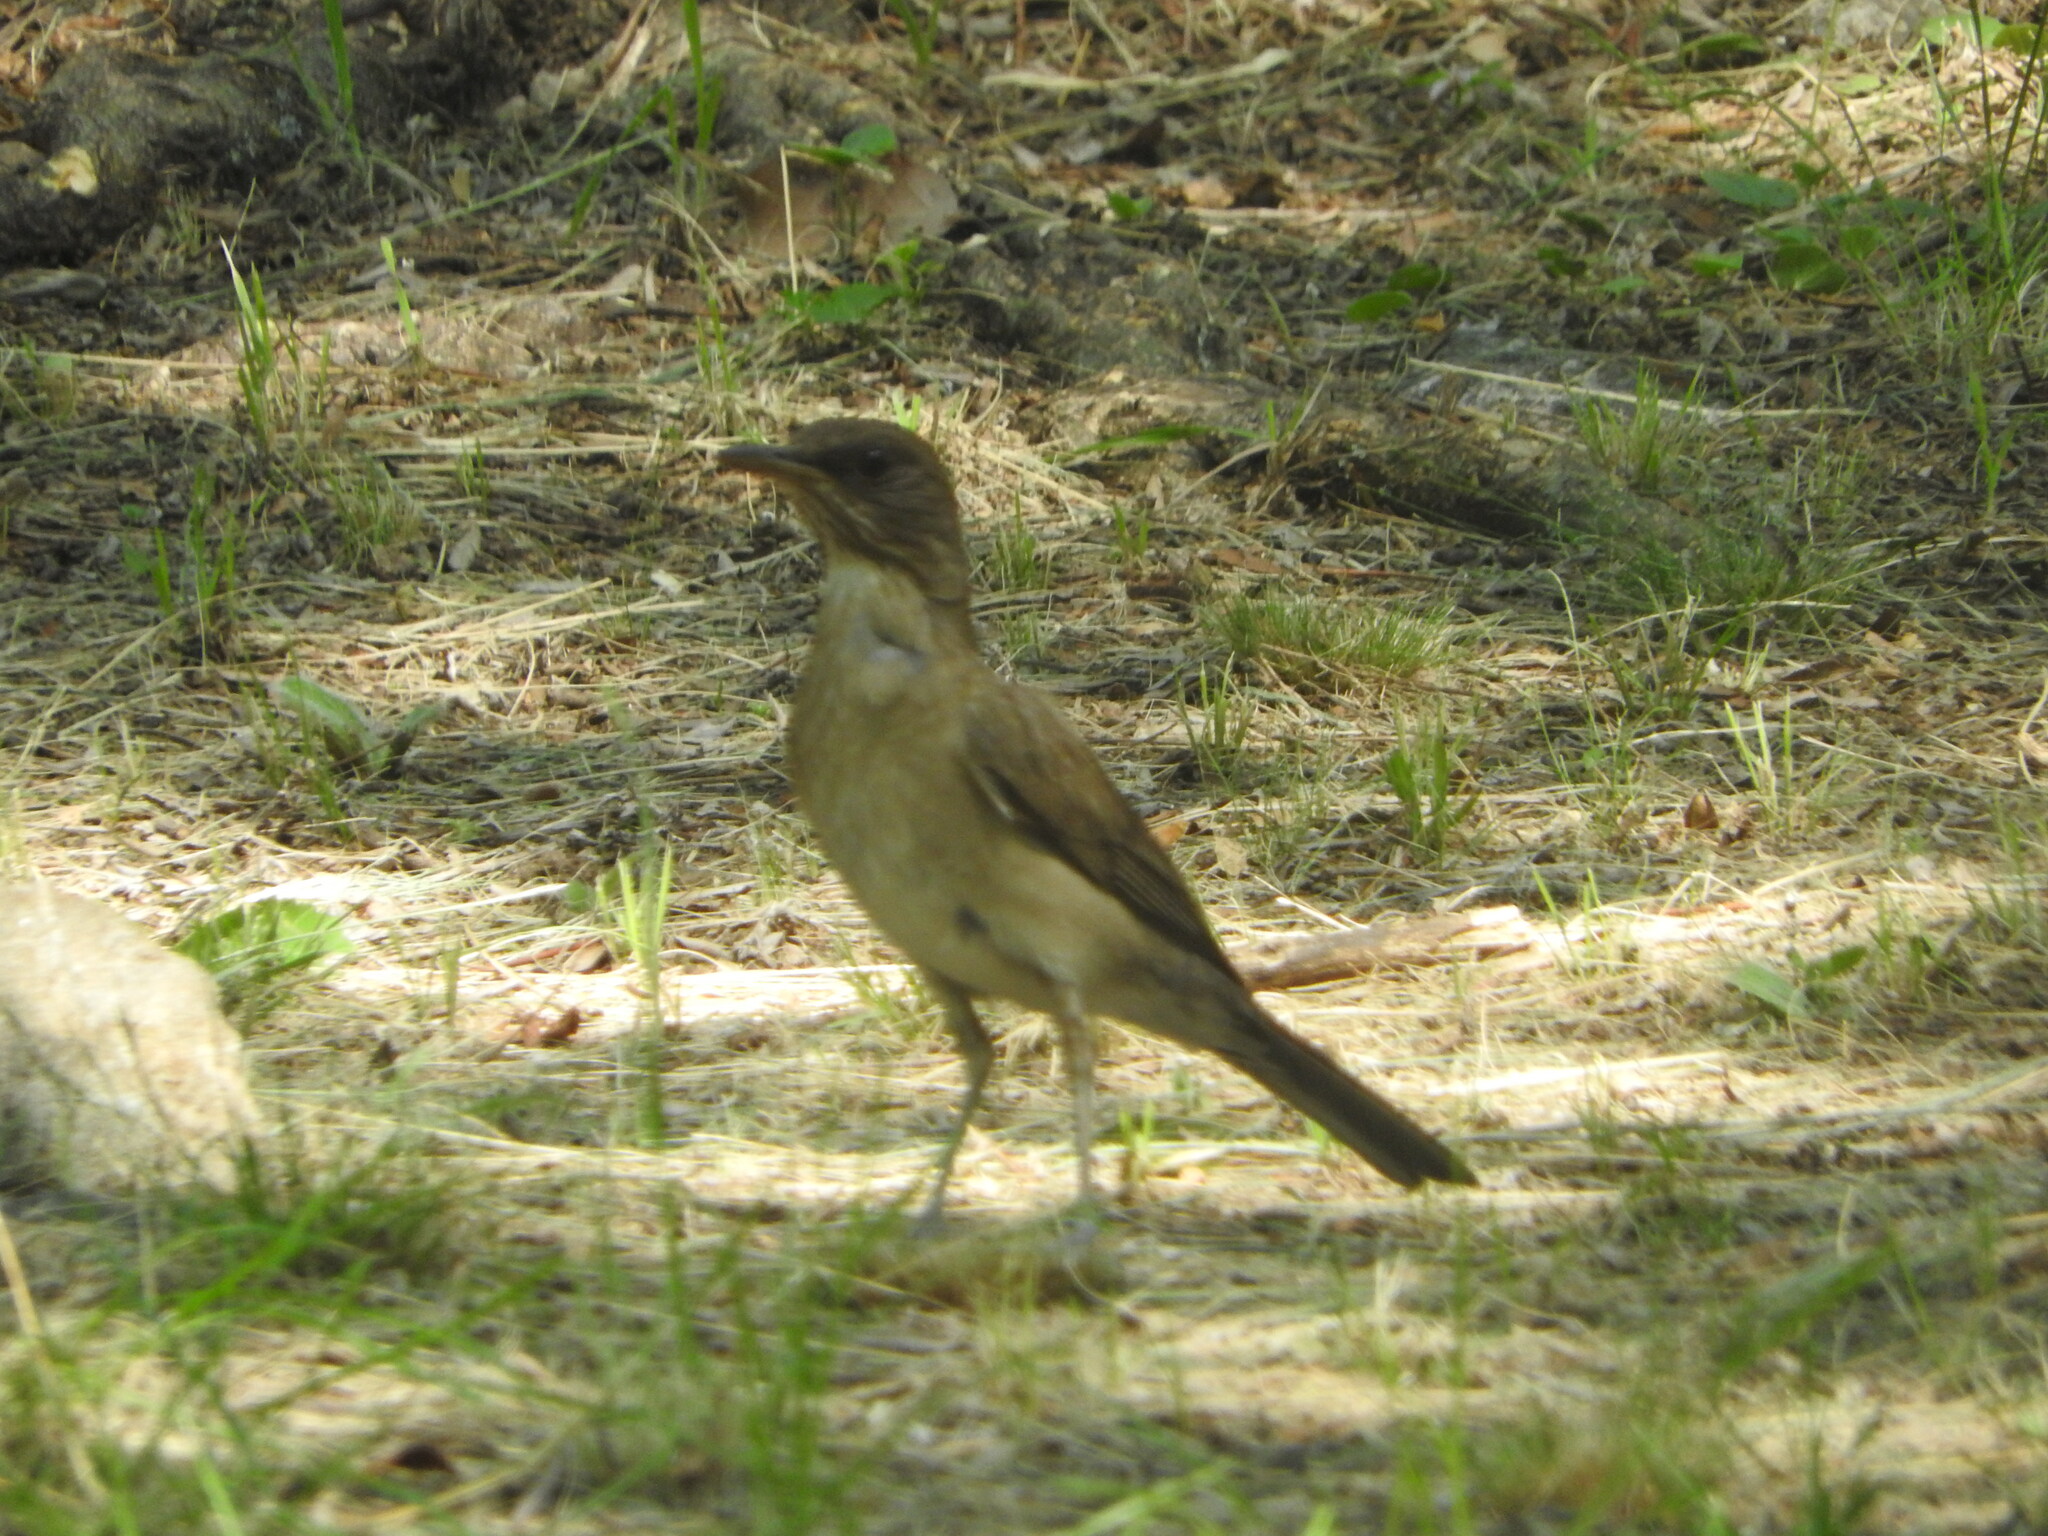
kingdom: Animalia
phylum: Chordata
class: Aves
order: Passeriformes
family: Turdidae
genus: Turdus
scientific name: Turdus amaurochalinus
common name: Creamy-bellied thrush
